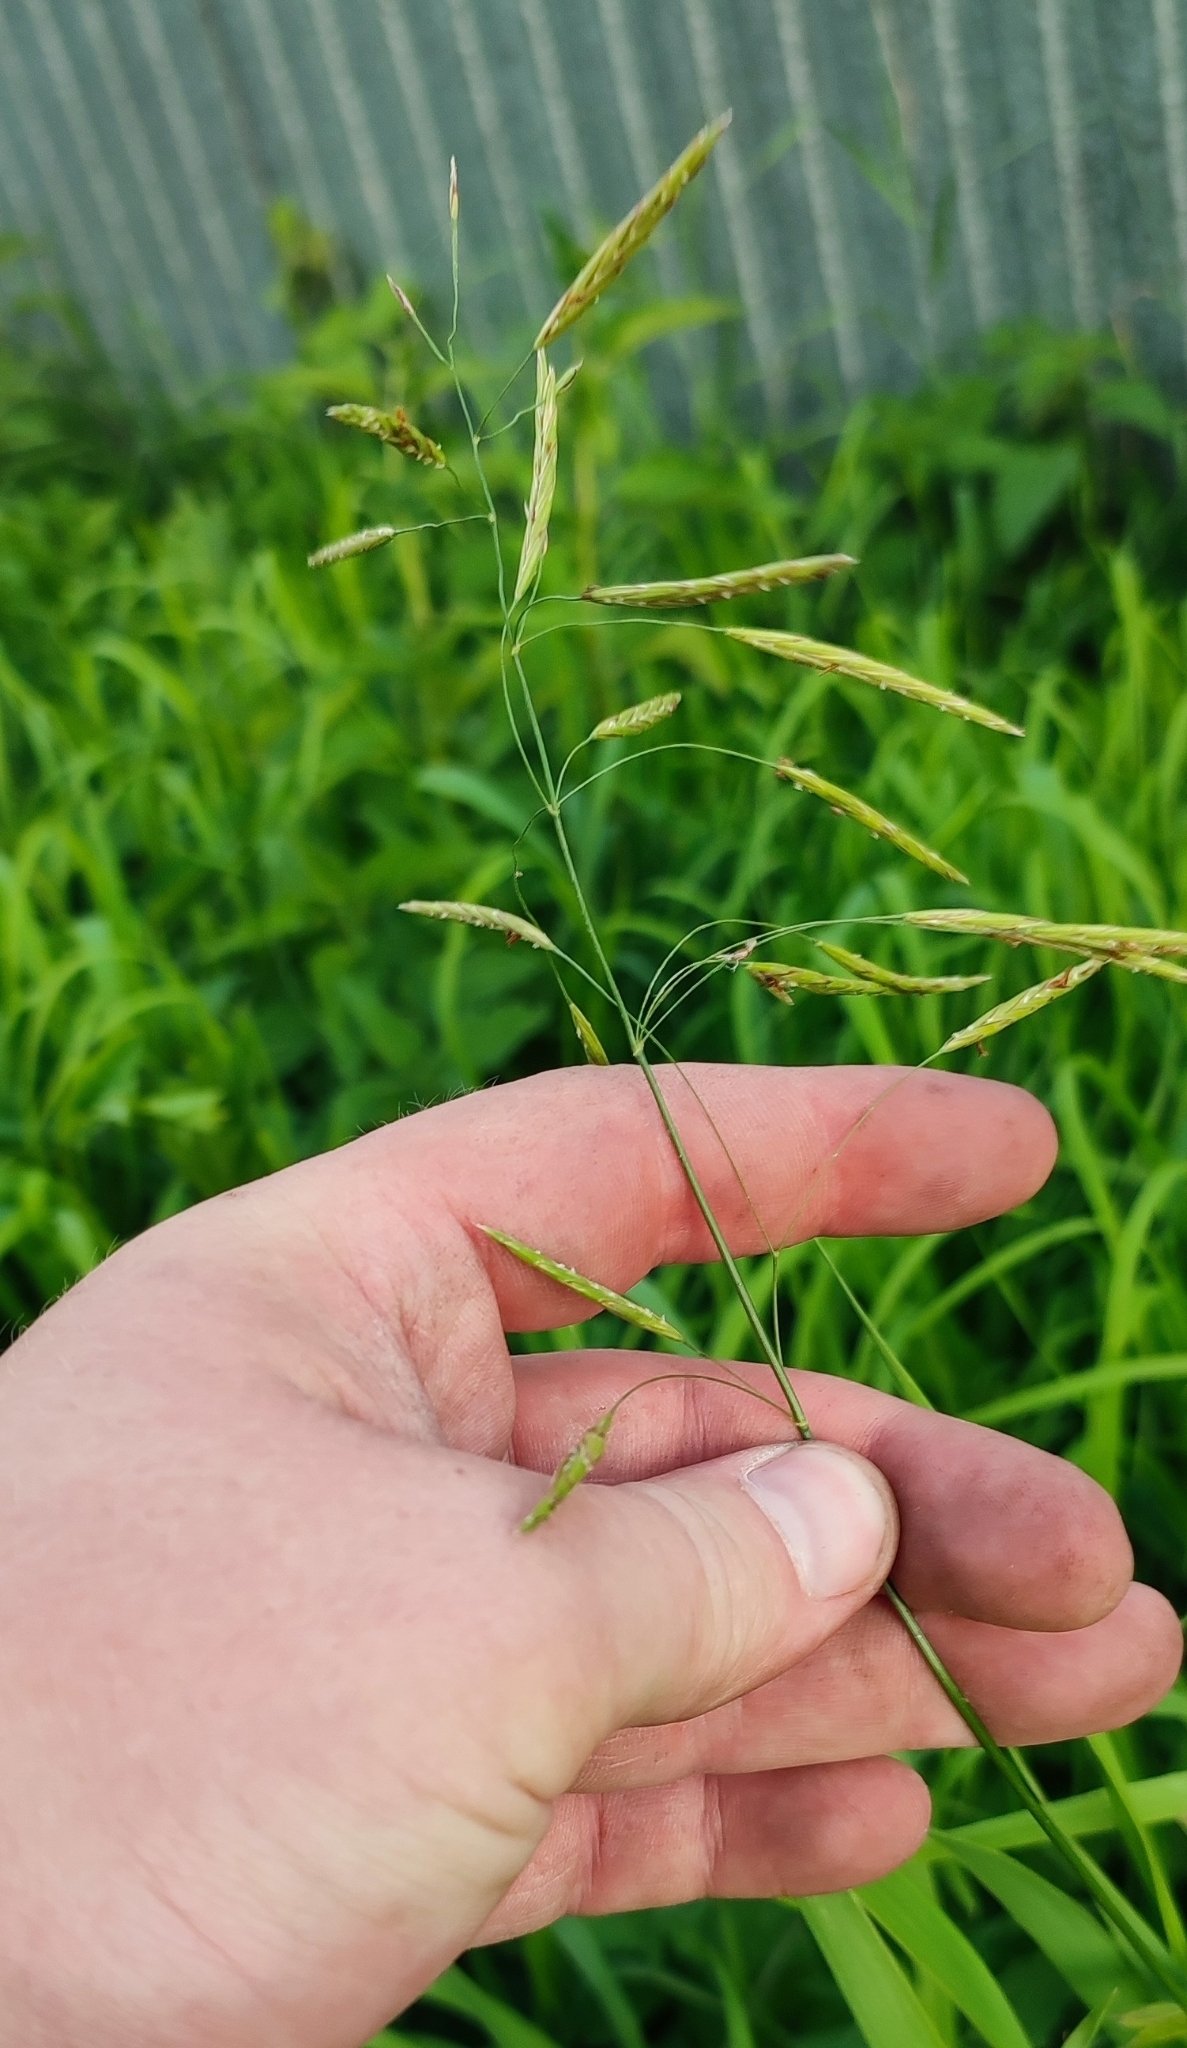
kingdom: Plantae
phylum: Tracheophyta
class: Liliopsida
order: Poales
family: Poaceae
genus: Bromus
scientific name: Bromus inermis
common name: Smooth brome
